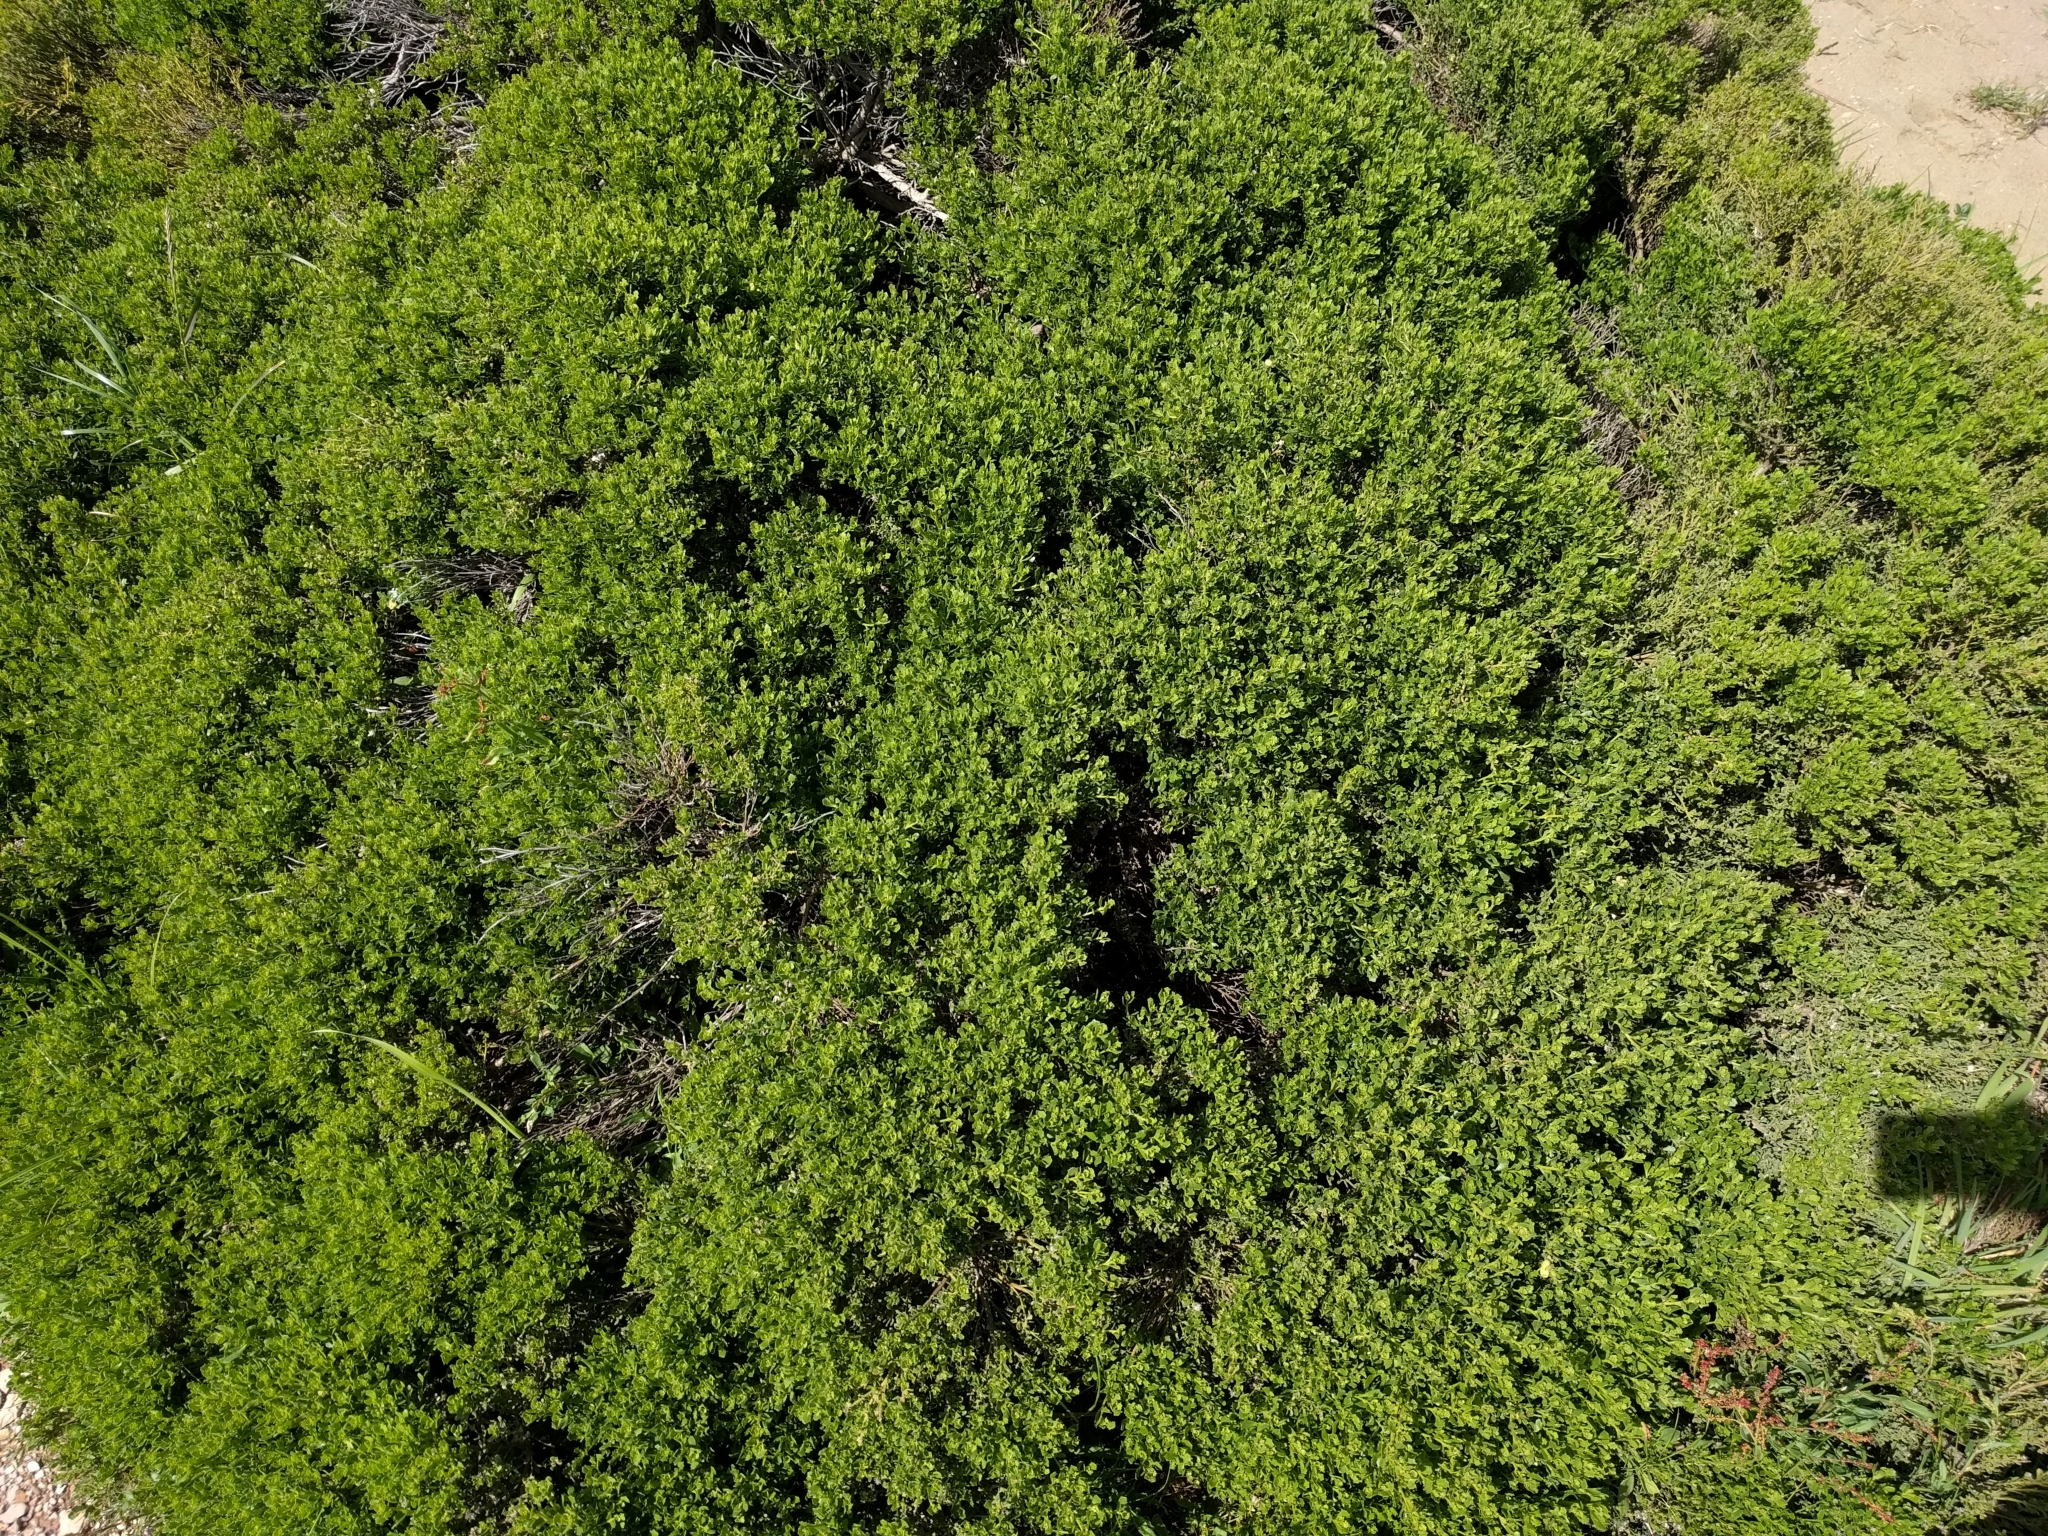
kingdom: Plantae
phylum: Tracheophyta
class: Magnoliopsida
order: Asterales
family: Asteraceae
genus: Baccharis
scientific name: Baccharis pilularis
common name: Coyotebrush
